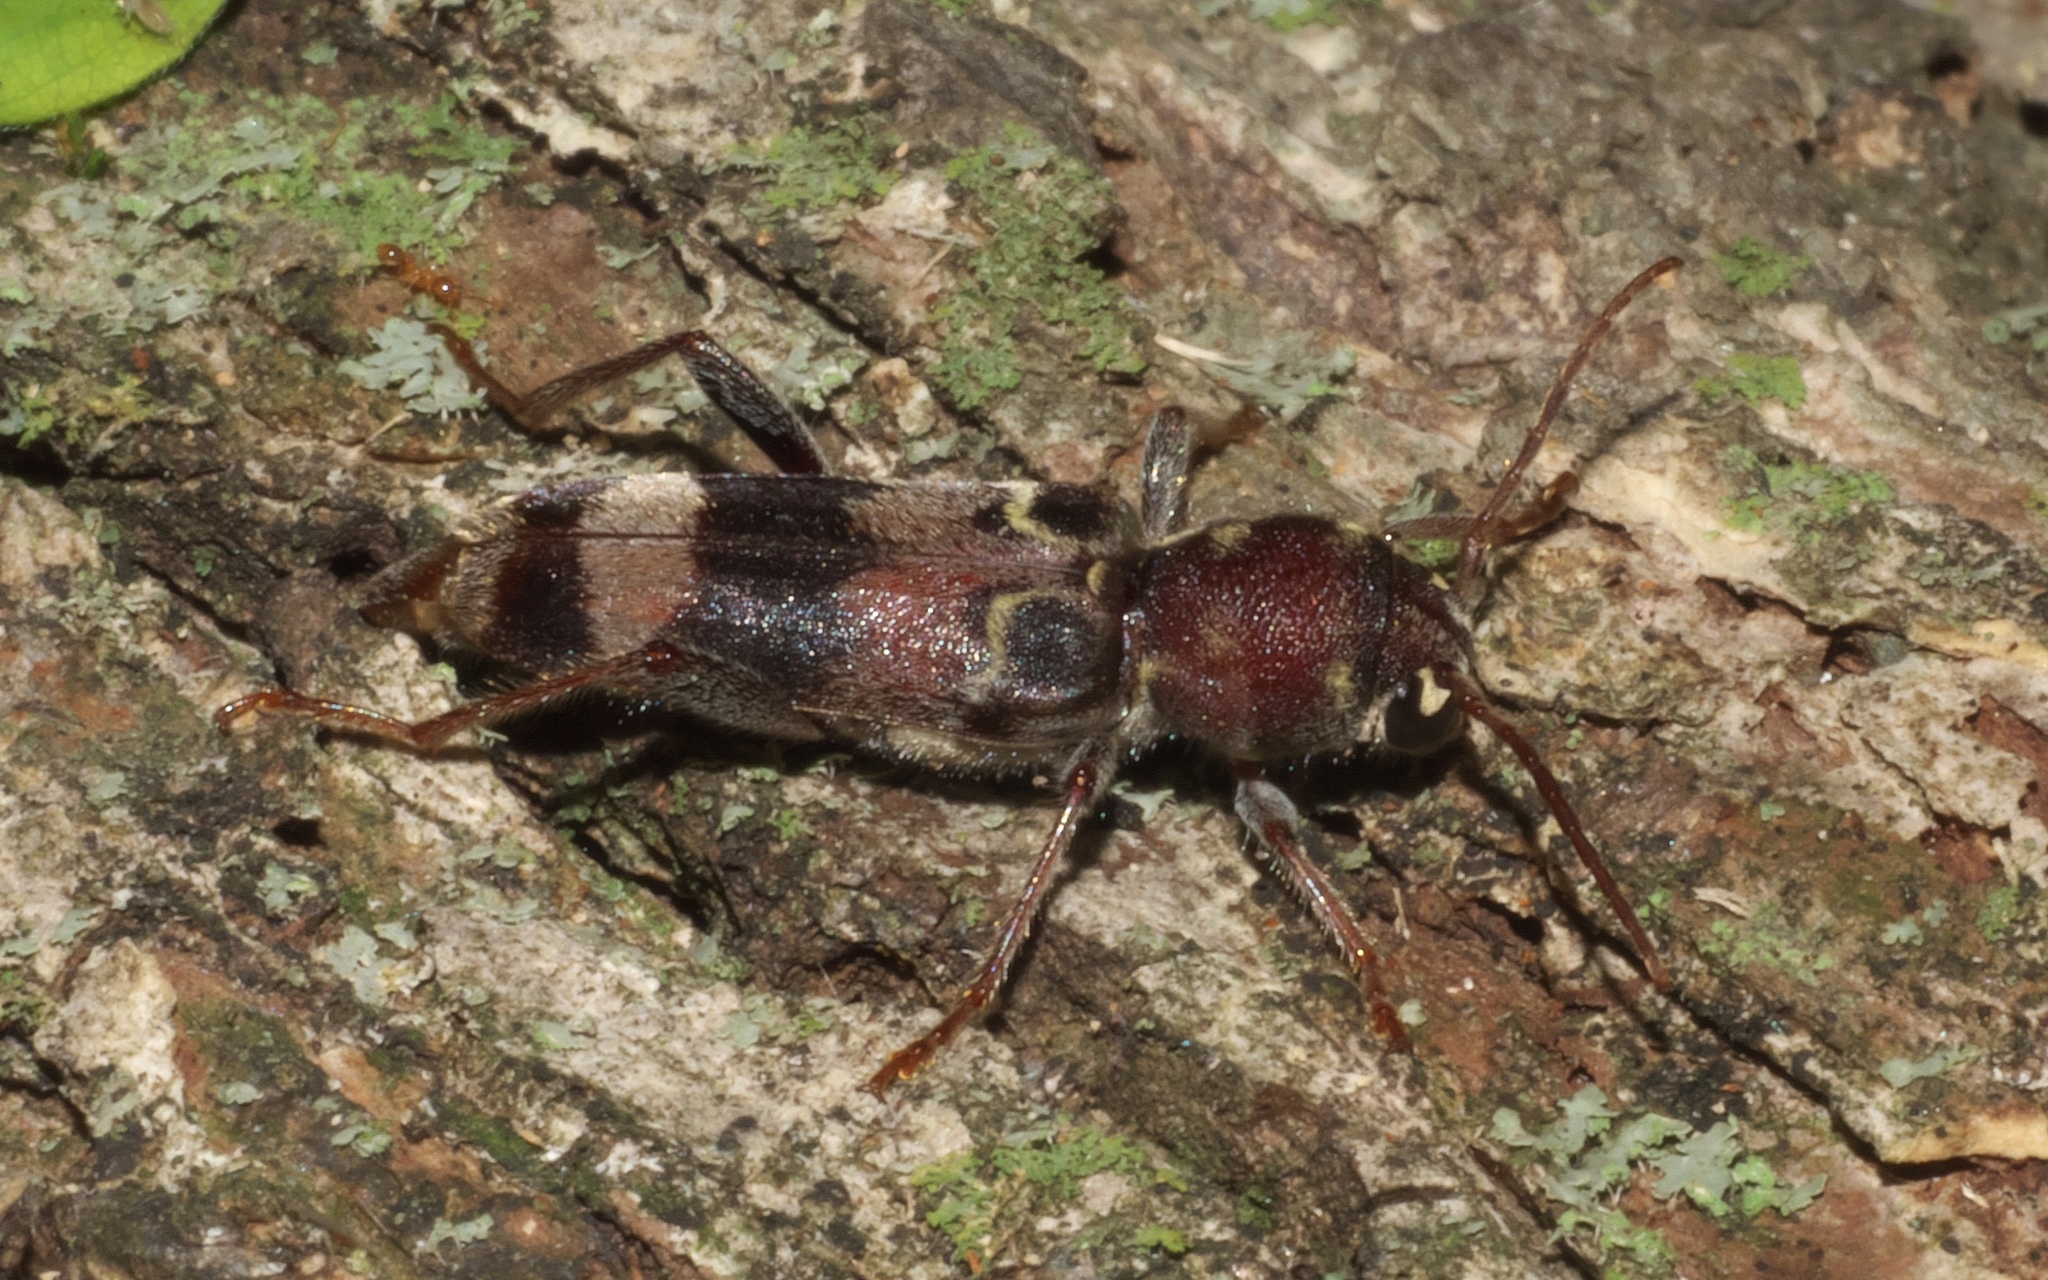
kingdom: Animalia
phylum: Arthropoda
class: Insecta
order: Coleoptera
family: Cerambycidae
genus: Xylotrechus
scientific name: Xylotrechus colonus
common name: Long-horned beetle
